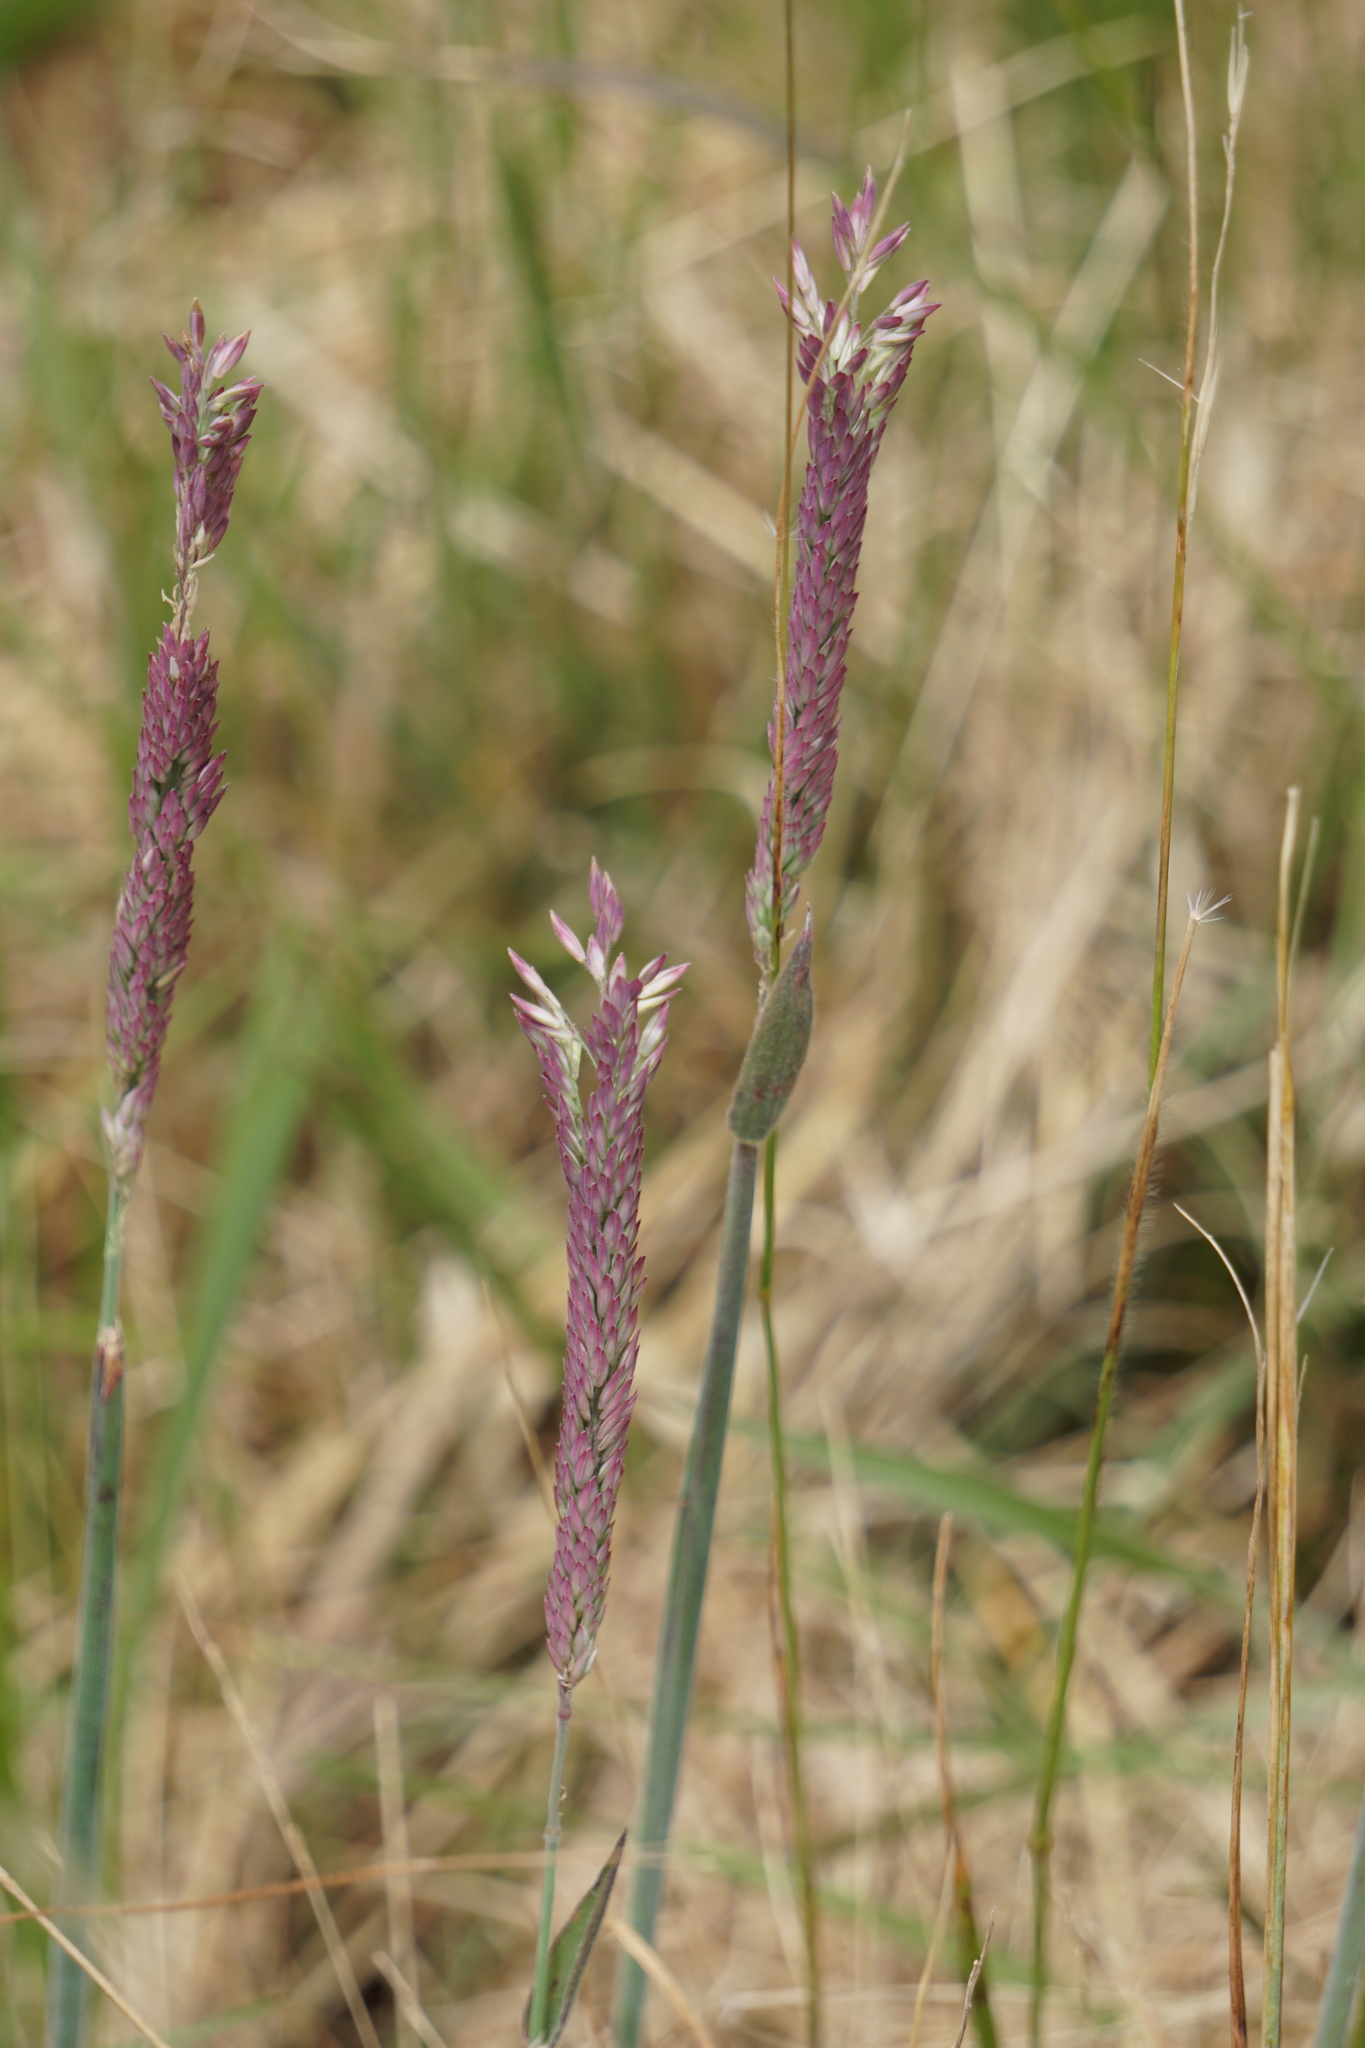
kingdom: Plantae
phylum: Tracheophyta
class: Liliopsida
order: Poales
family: Poaceae
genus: Holcus
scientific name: Holcus lanatus
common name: Yorkshire-fog
